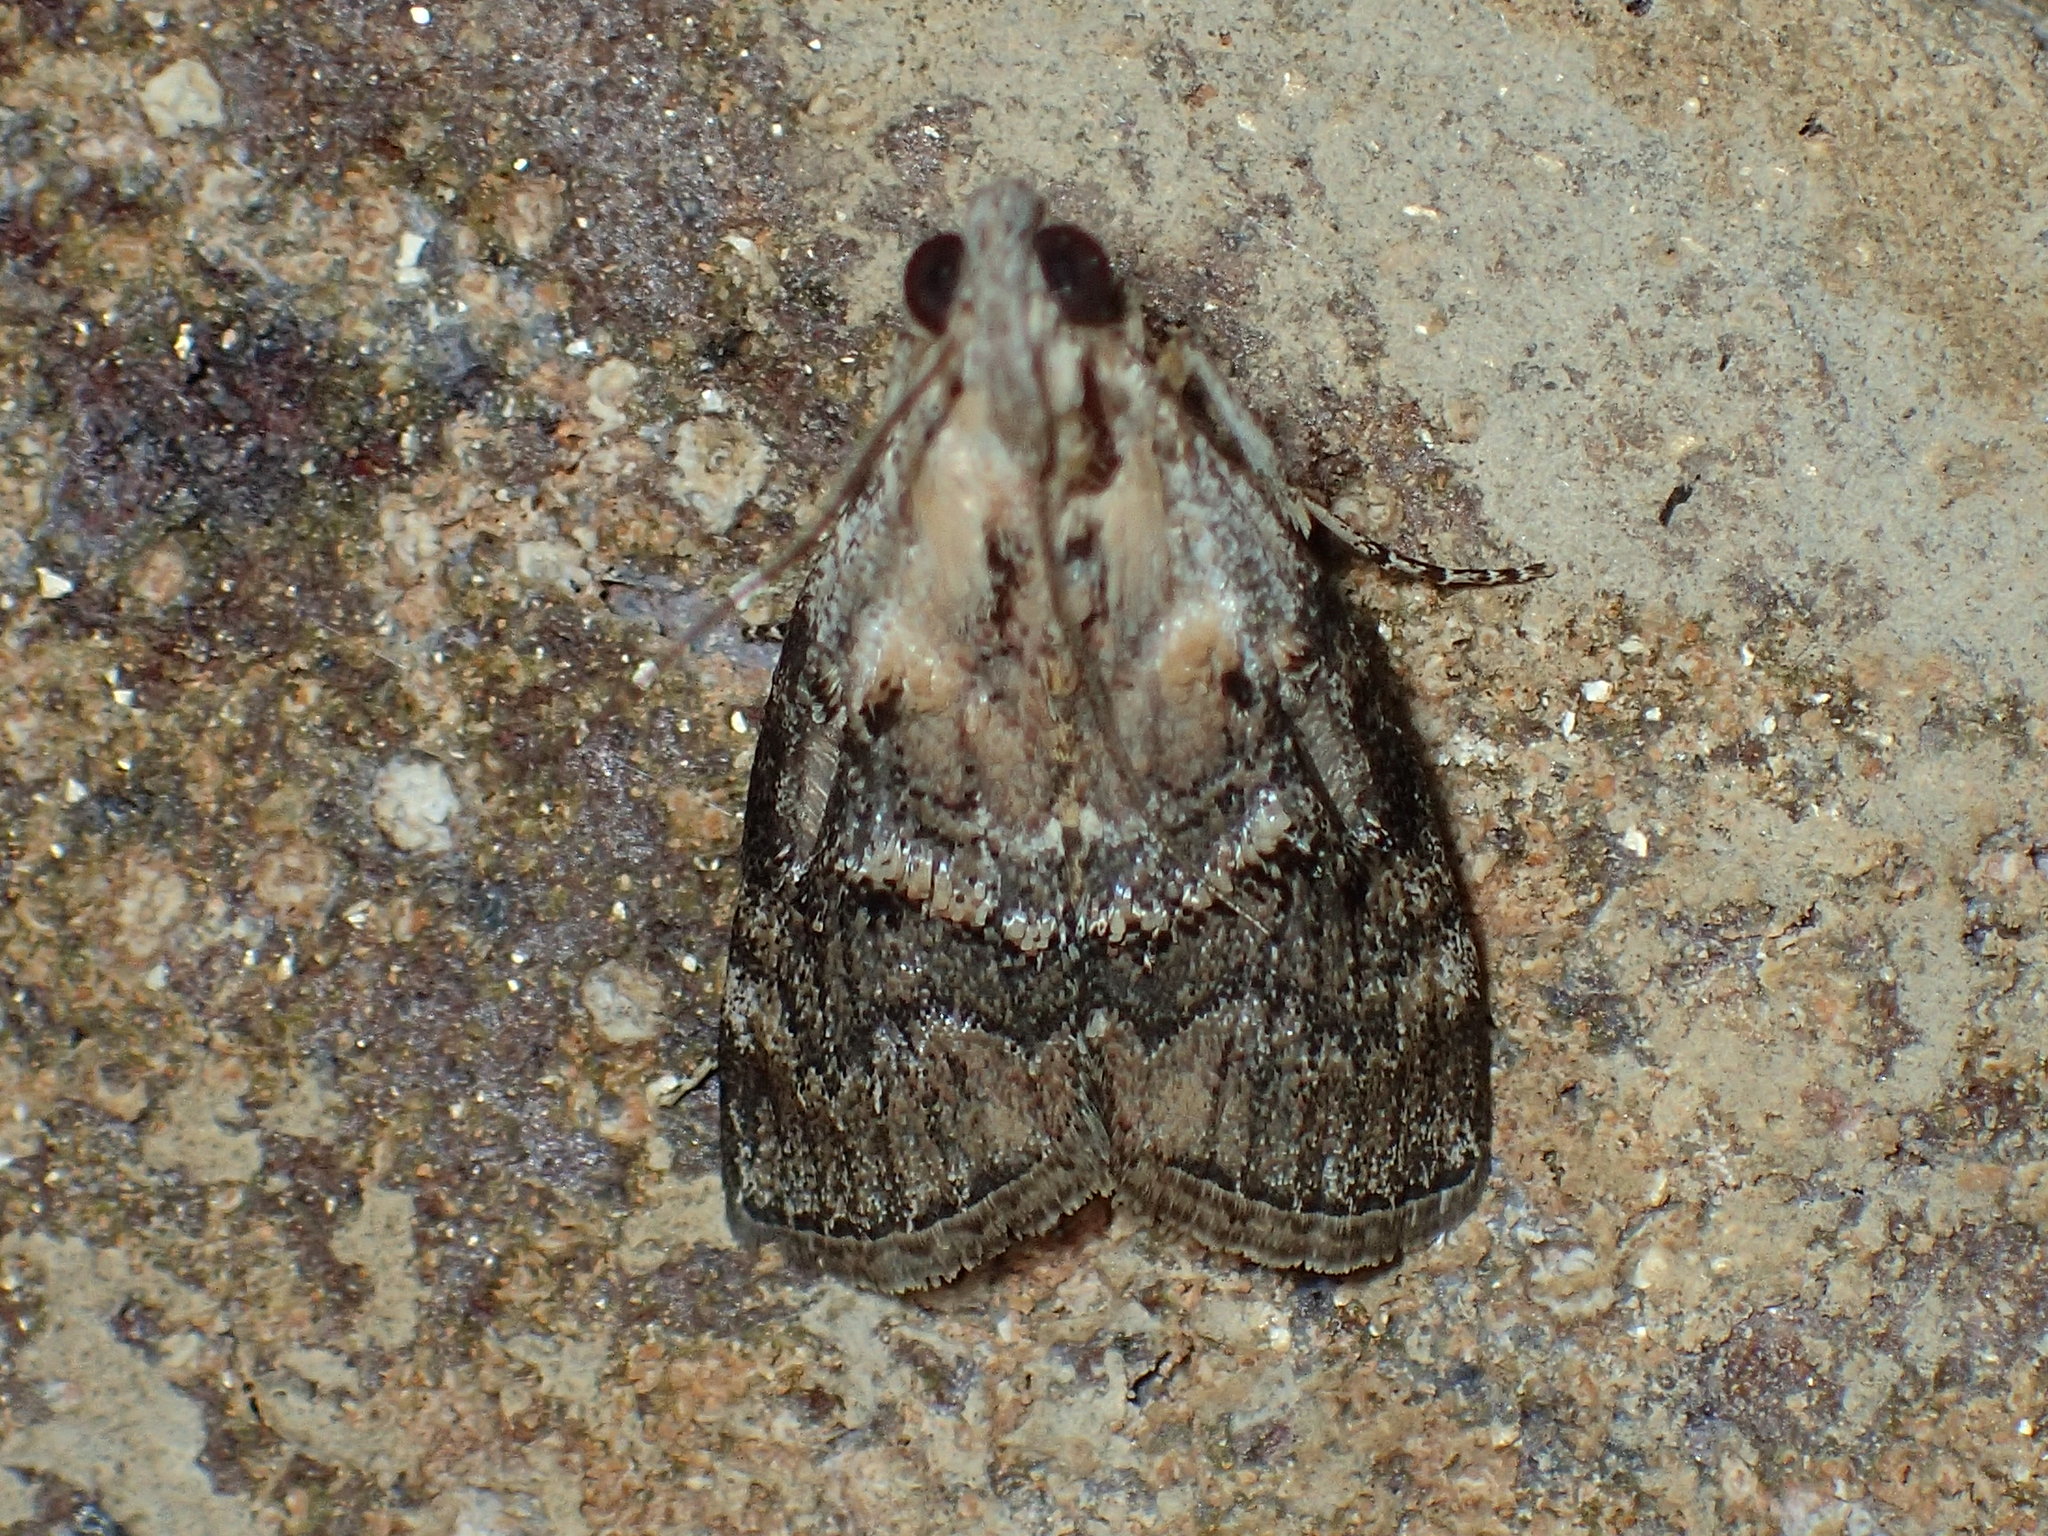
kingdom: Animalia
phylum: Arthropoda
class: Insecta
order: Lepidoptera
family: Pyralidae
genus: Pococera
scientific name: Pococera expandens
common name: Striped oak webworm moth
